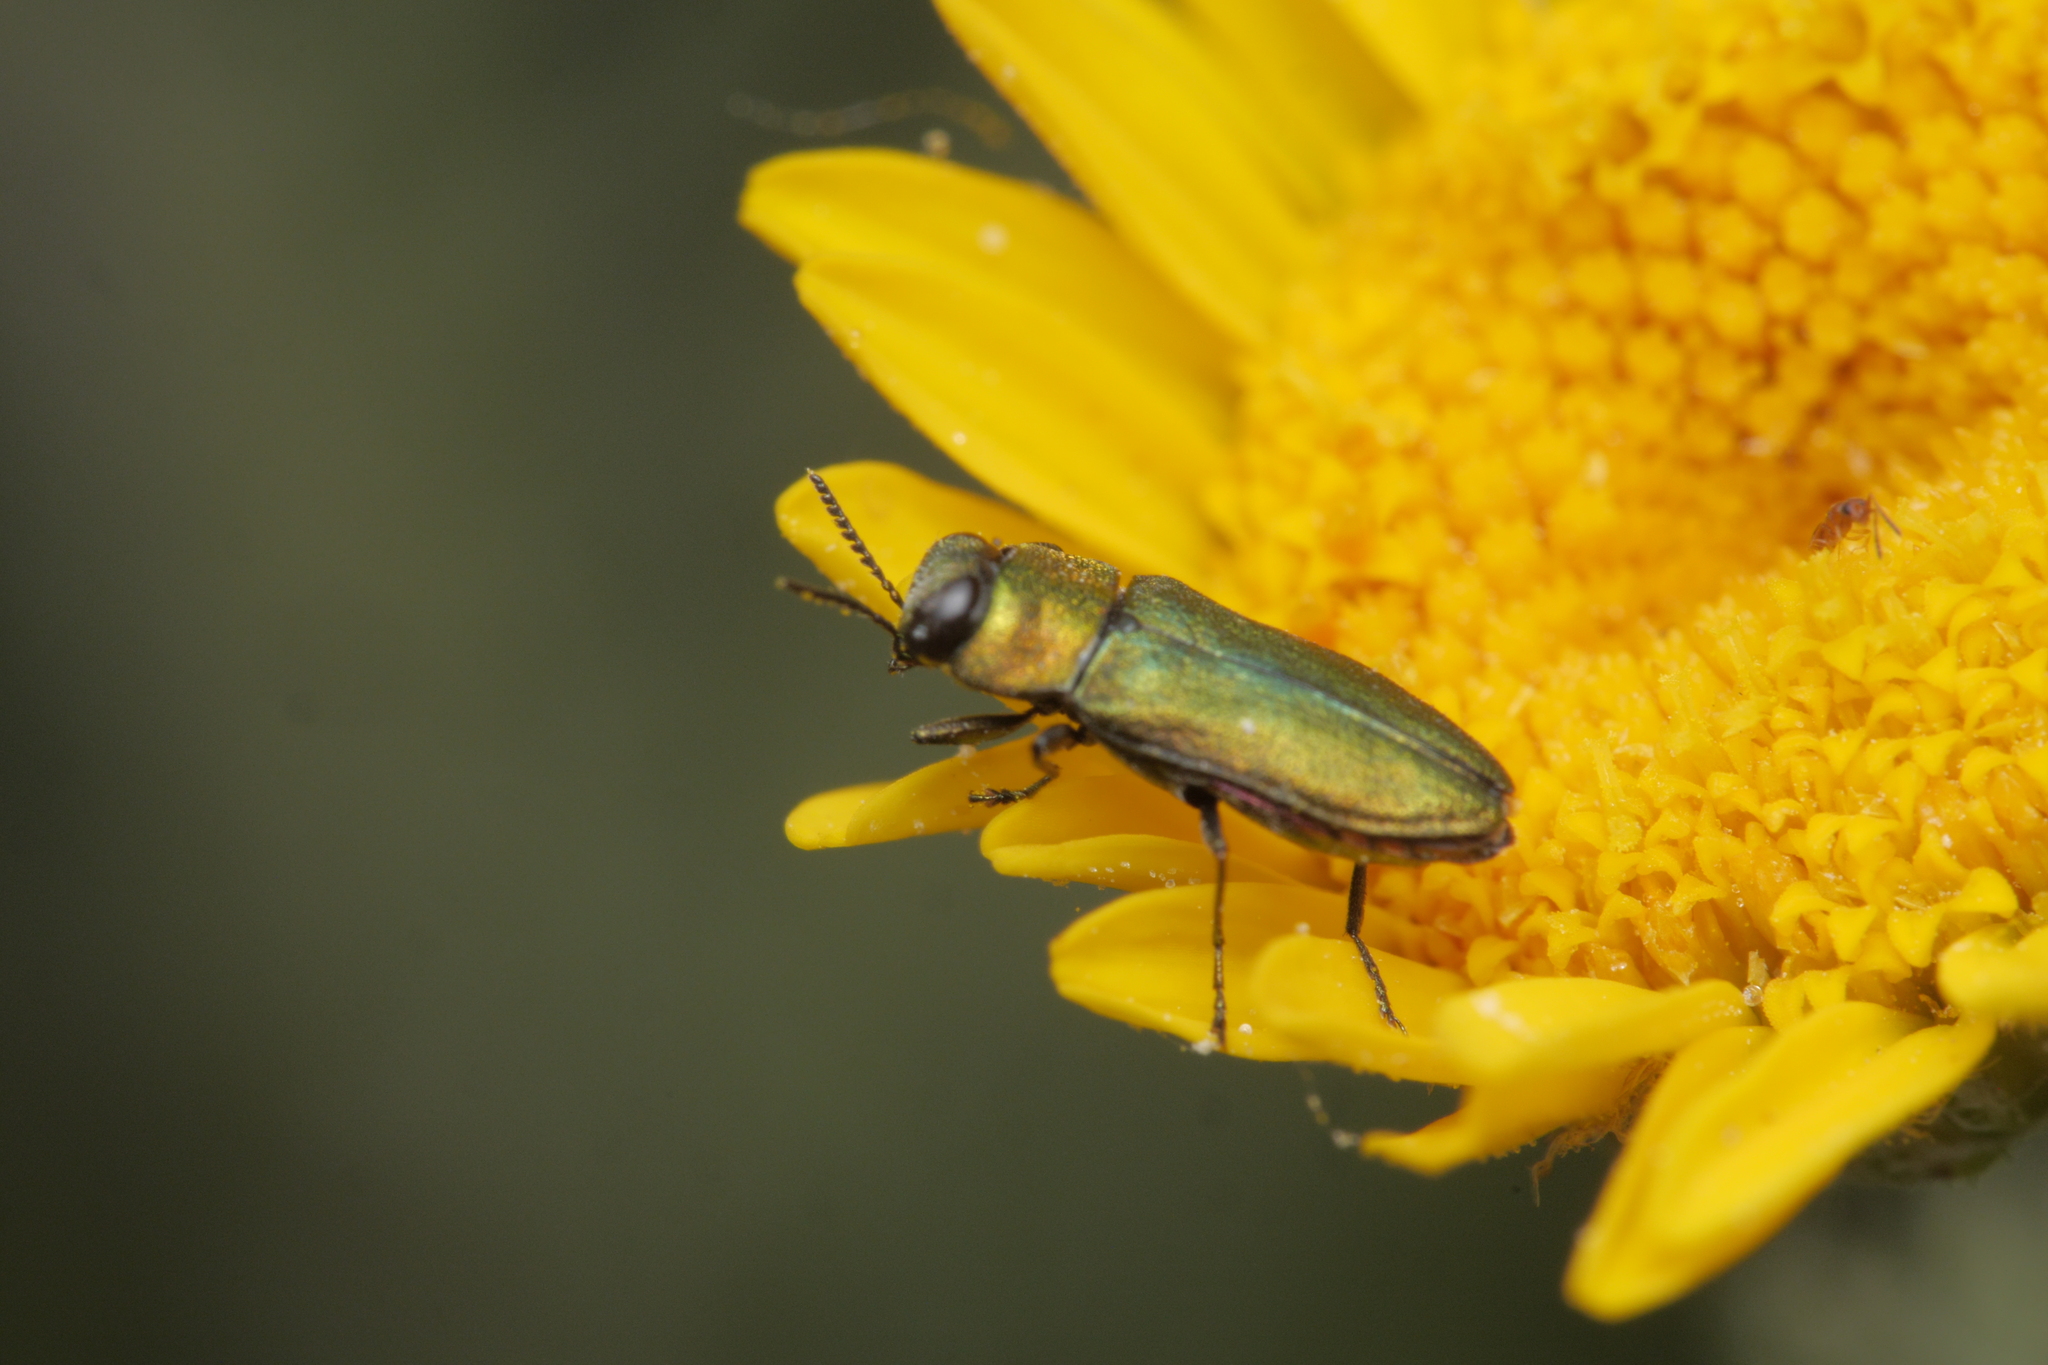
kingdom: Animalia
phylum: Arthropoda
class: Insecta
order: Coleoptera
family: Buprestidae
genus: Anthaxia
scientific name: Anthaxia nitidula
